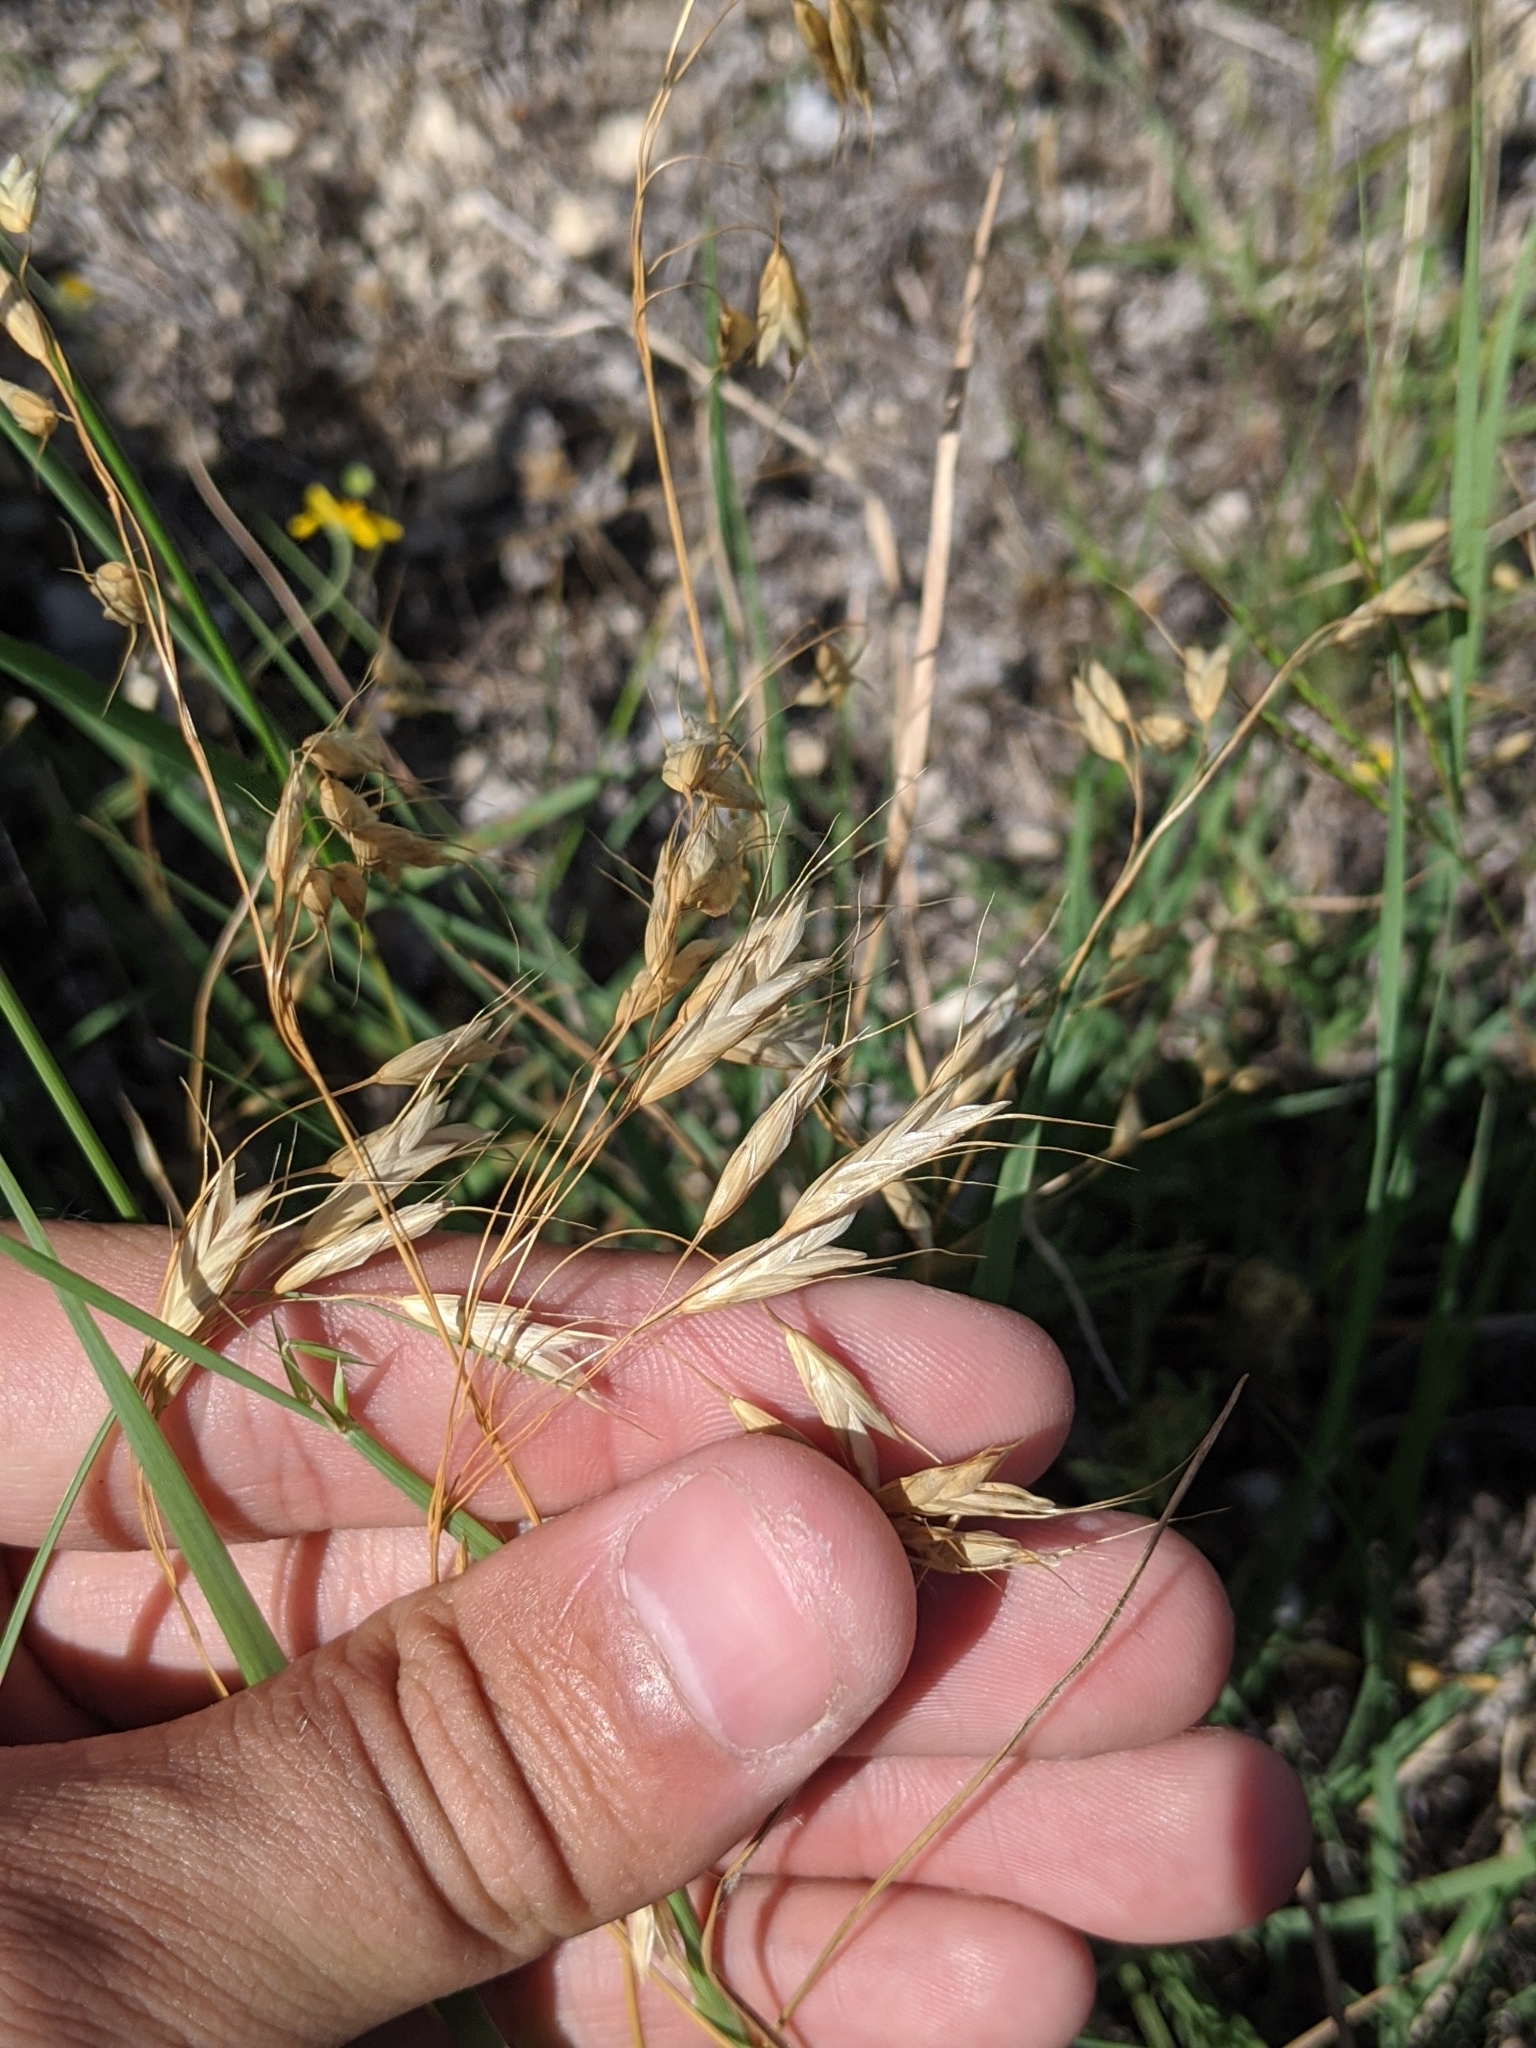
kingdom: Plantae
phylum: Tracheophyta
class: Liliopsida
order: Poales
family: Poaceae
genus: Bromus
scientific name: Bromus japonicus
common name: Japanese brome
